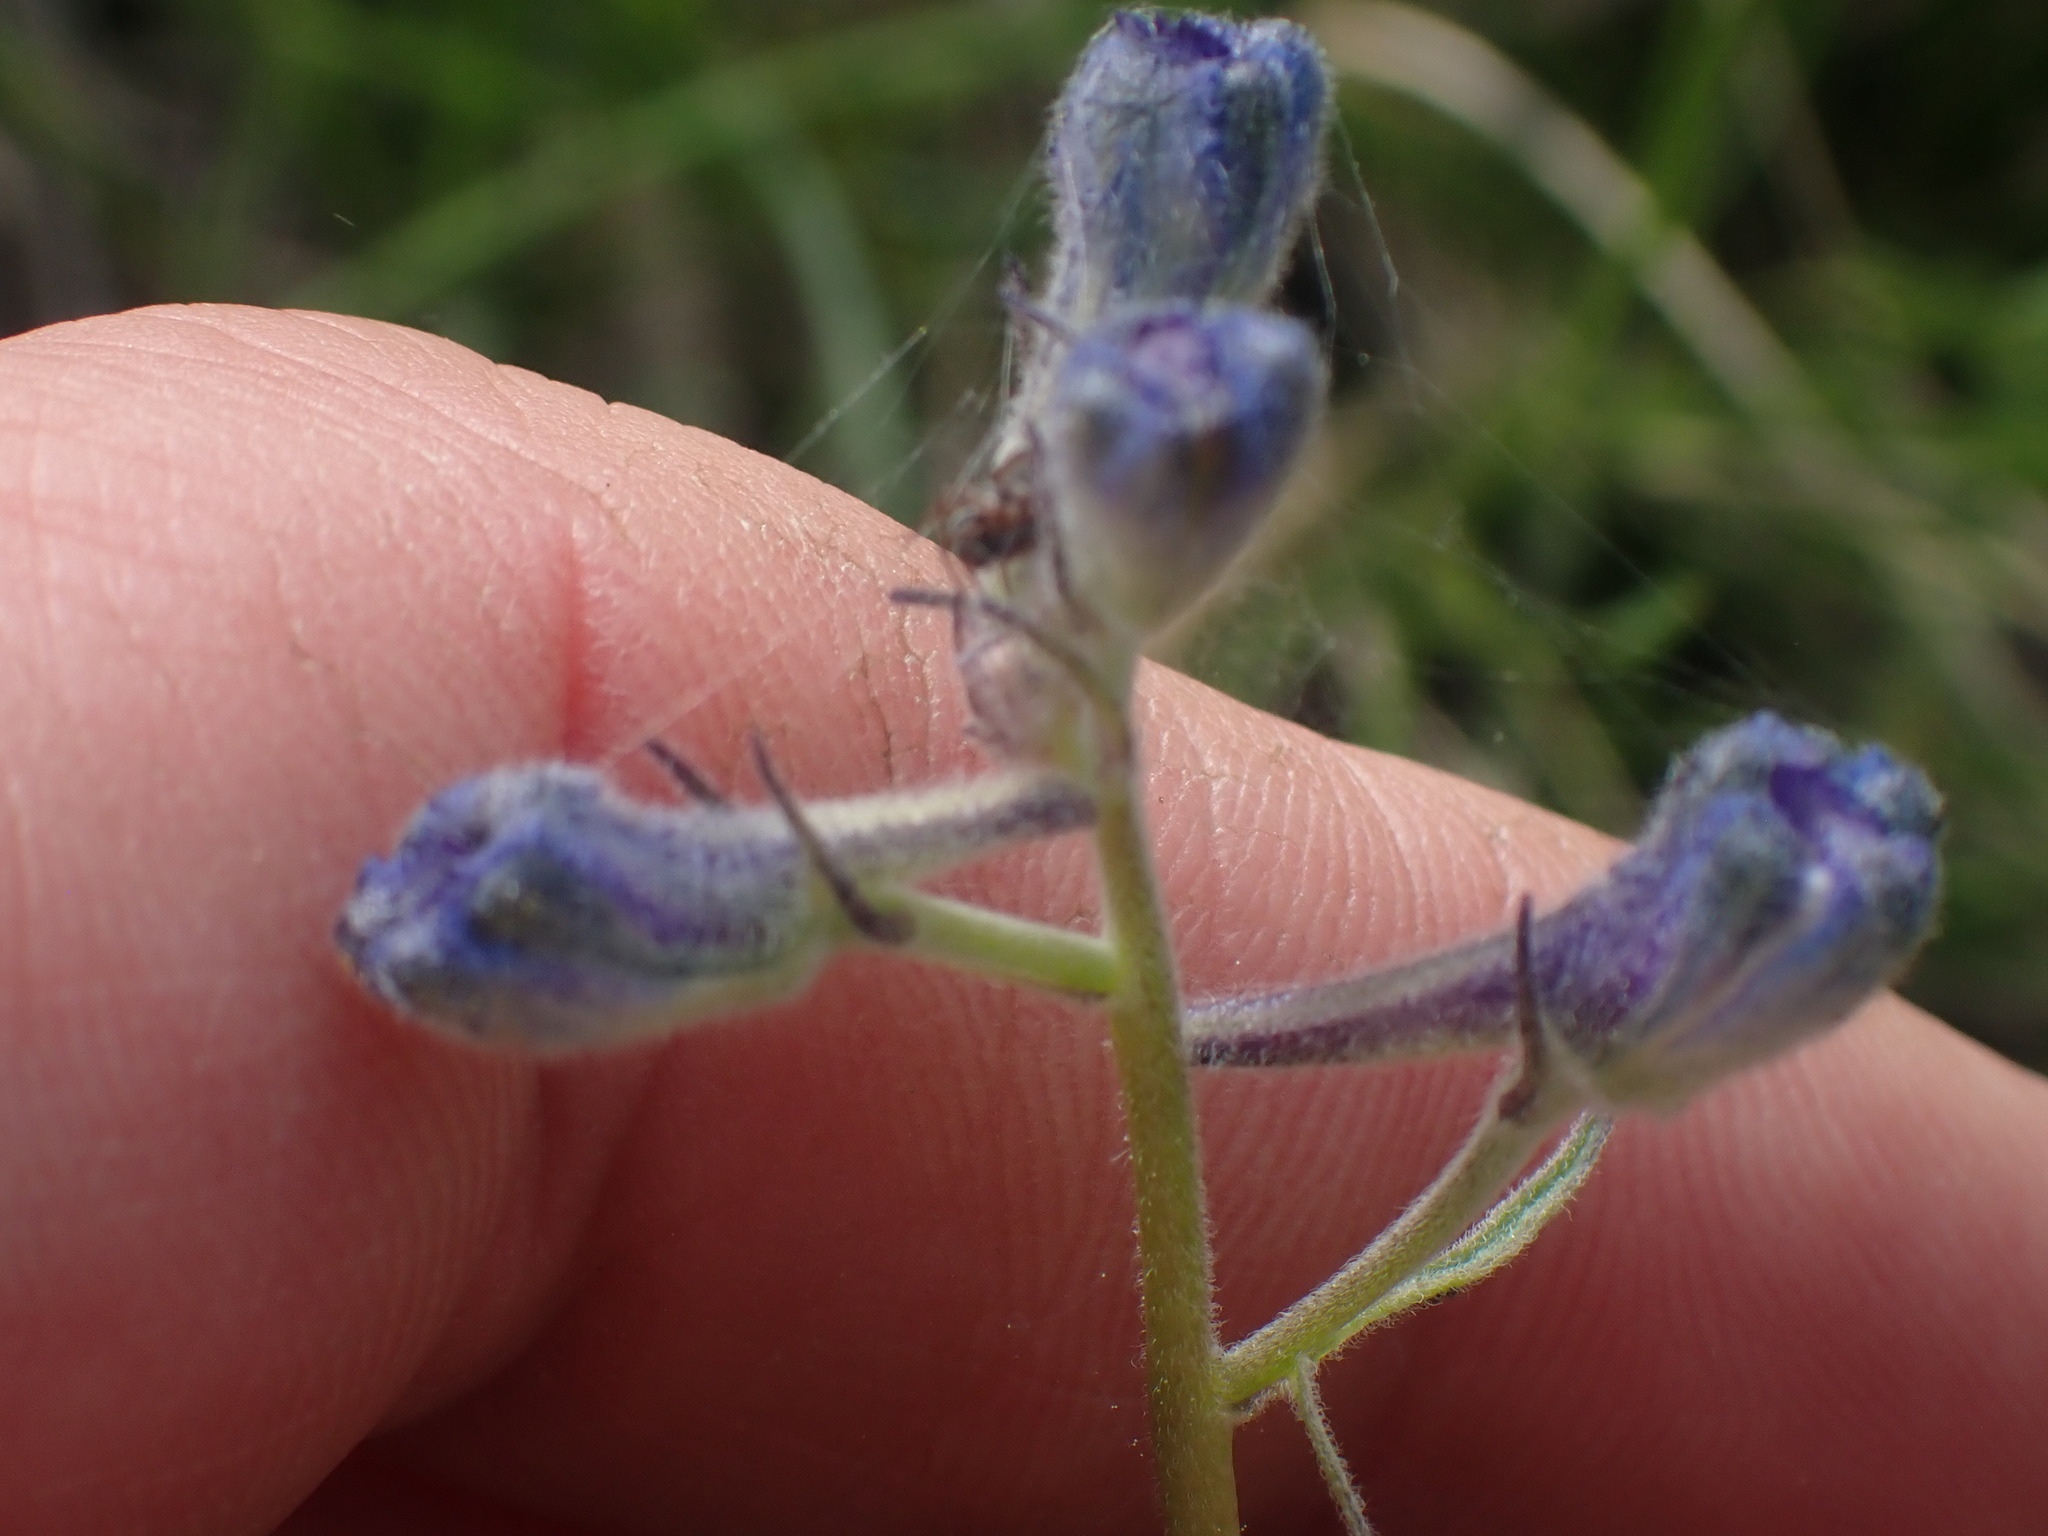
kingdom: Plantae
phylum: Tracheophyta
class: Magnoliopsida
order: Ranunculales
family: Ranunculaceae
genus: Delphinium
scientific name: Delphinium nuttallianum
